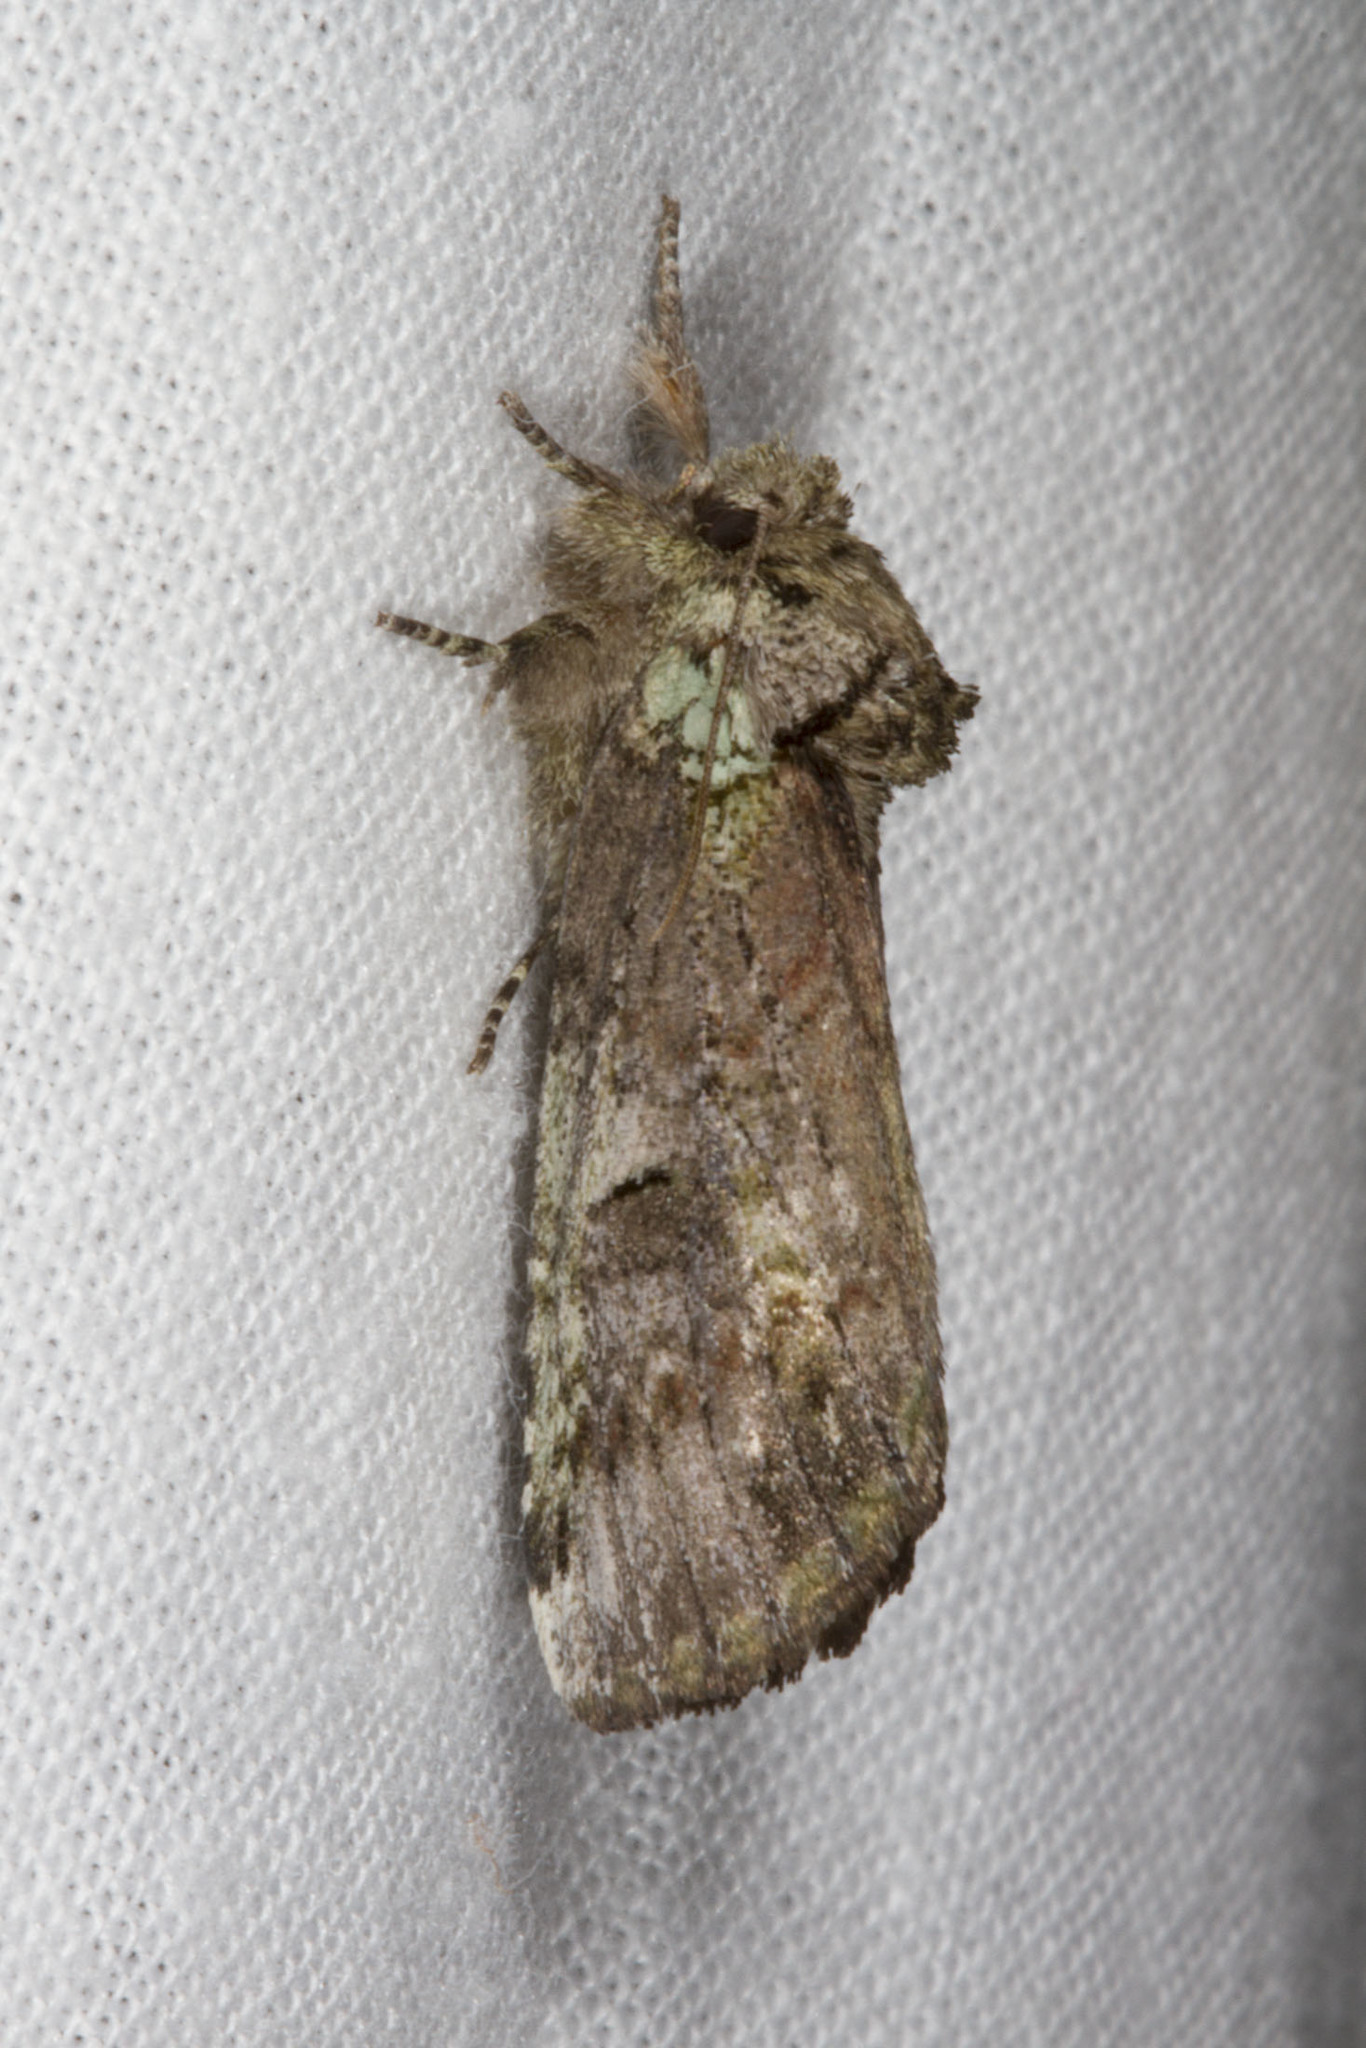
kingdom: Animalia
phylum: Arthropoda
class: Insecta
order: Lepidoptera
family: Notodontidae
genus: Schizura
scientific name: Schizura
